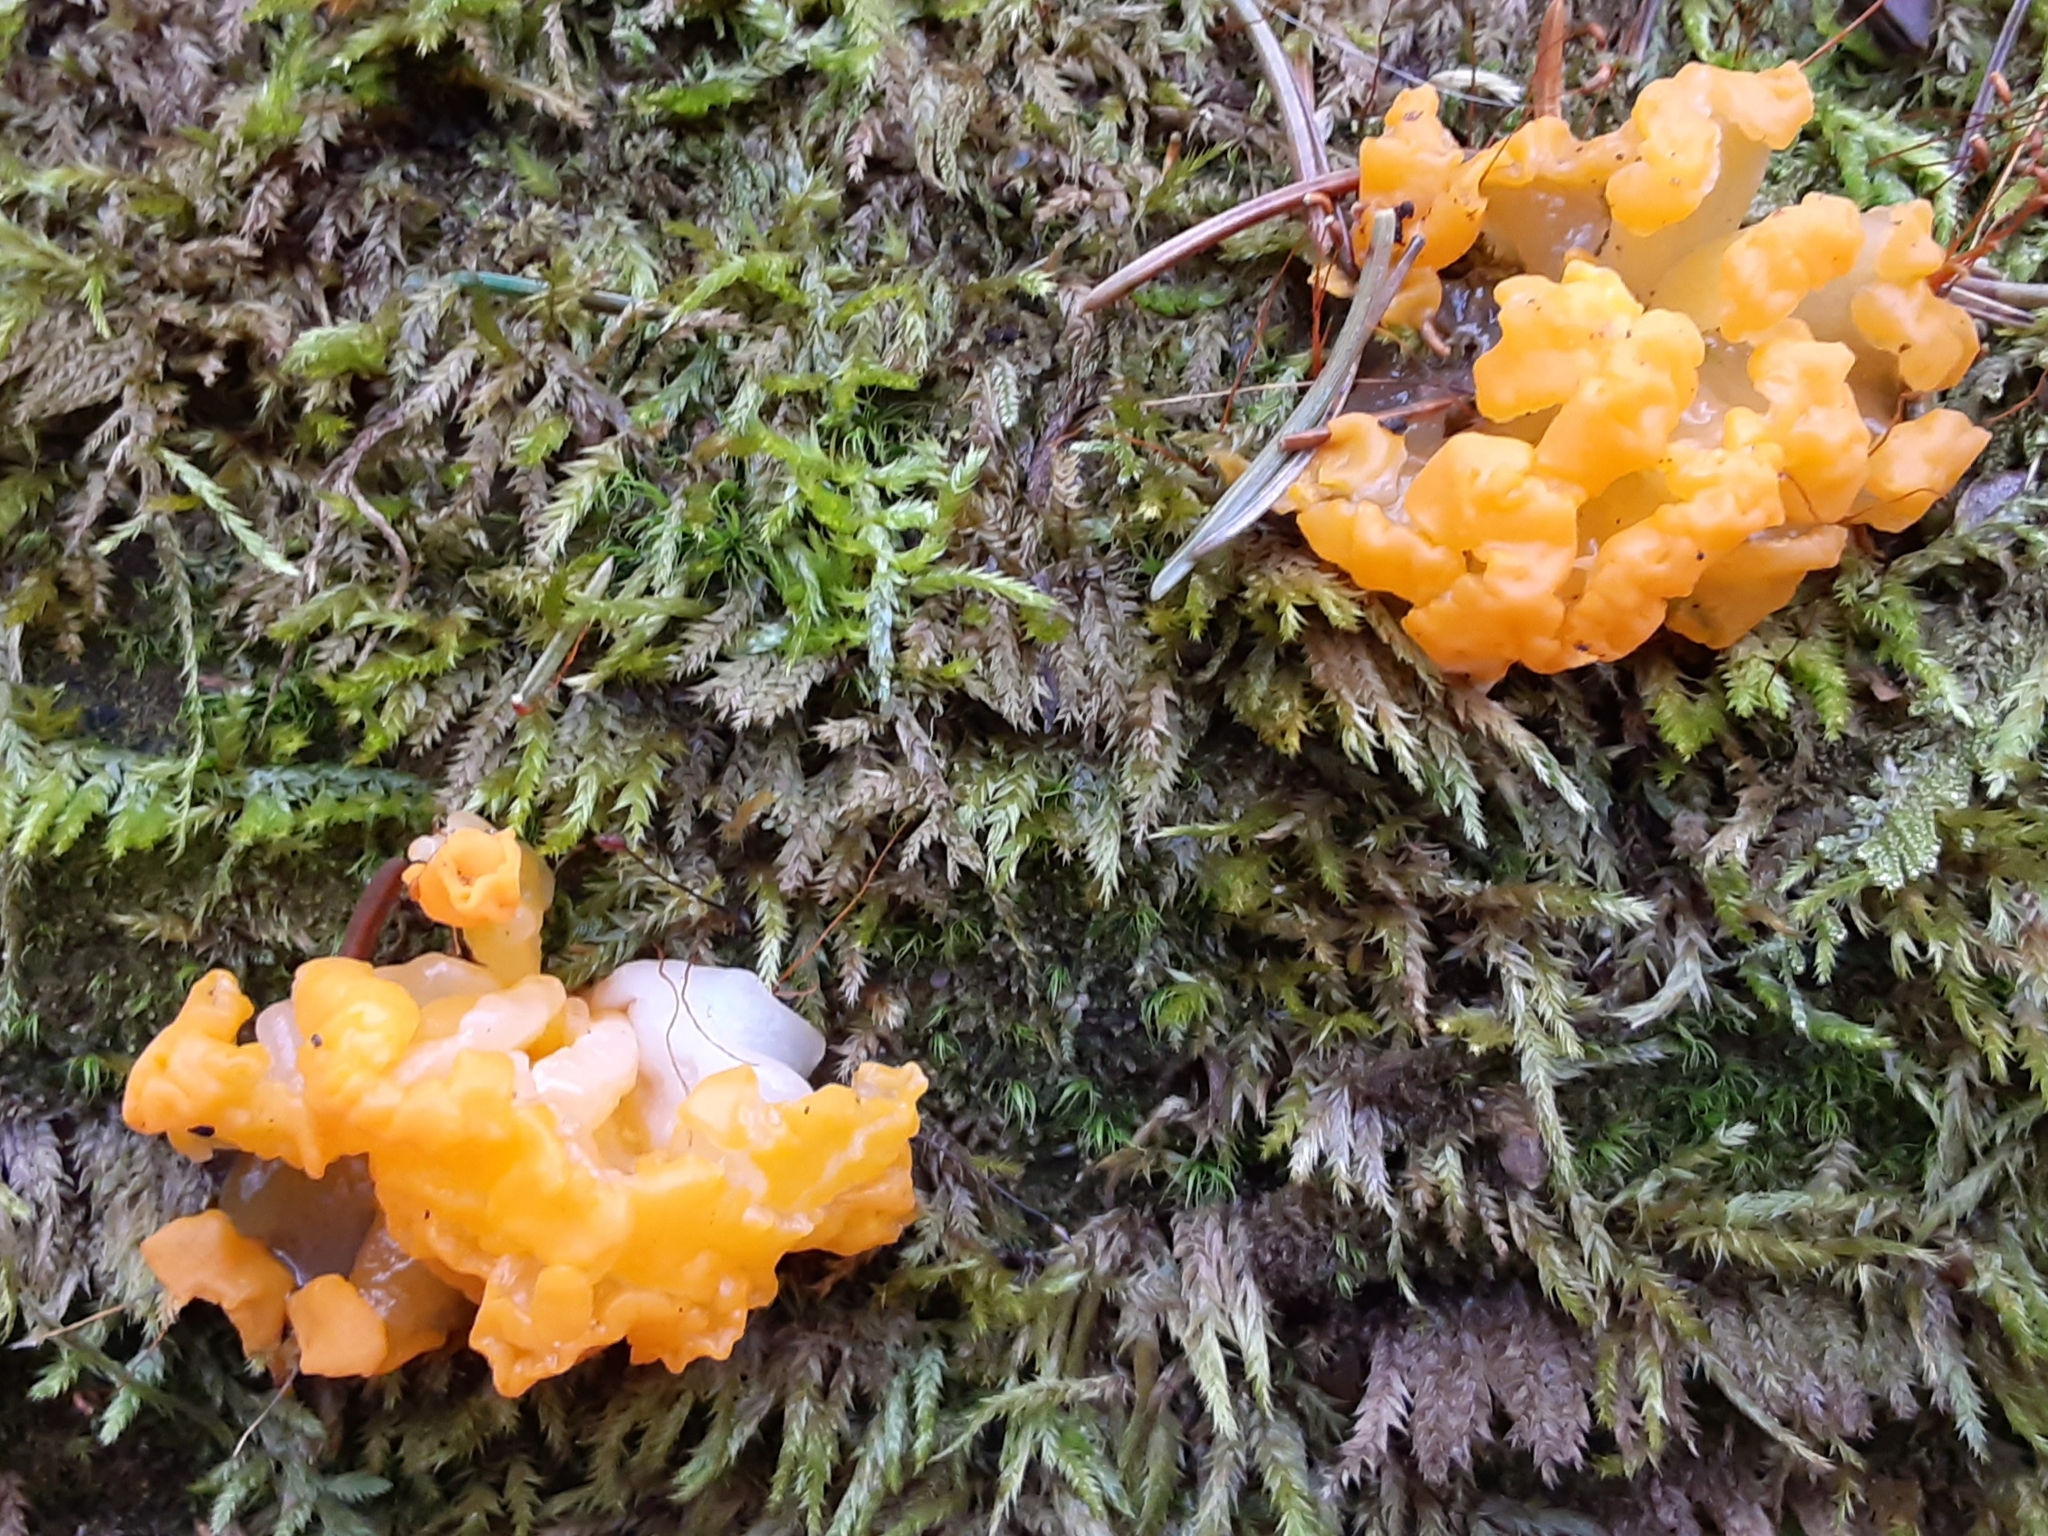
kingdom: Fungi
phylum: Basidiomycota
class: Dacrymycetes
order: Dacrymycetales
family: Dacrymycetaceae
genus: Dacrymyces
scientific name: Dacrymyces chrysospermus
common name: Orange jelly spot
